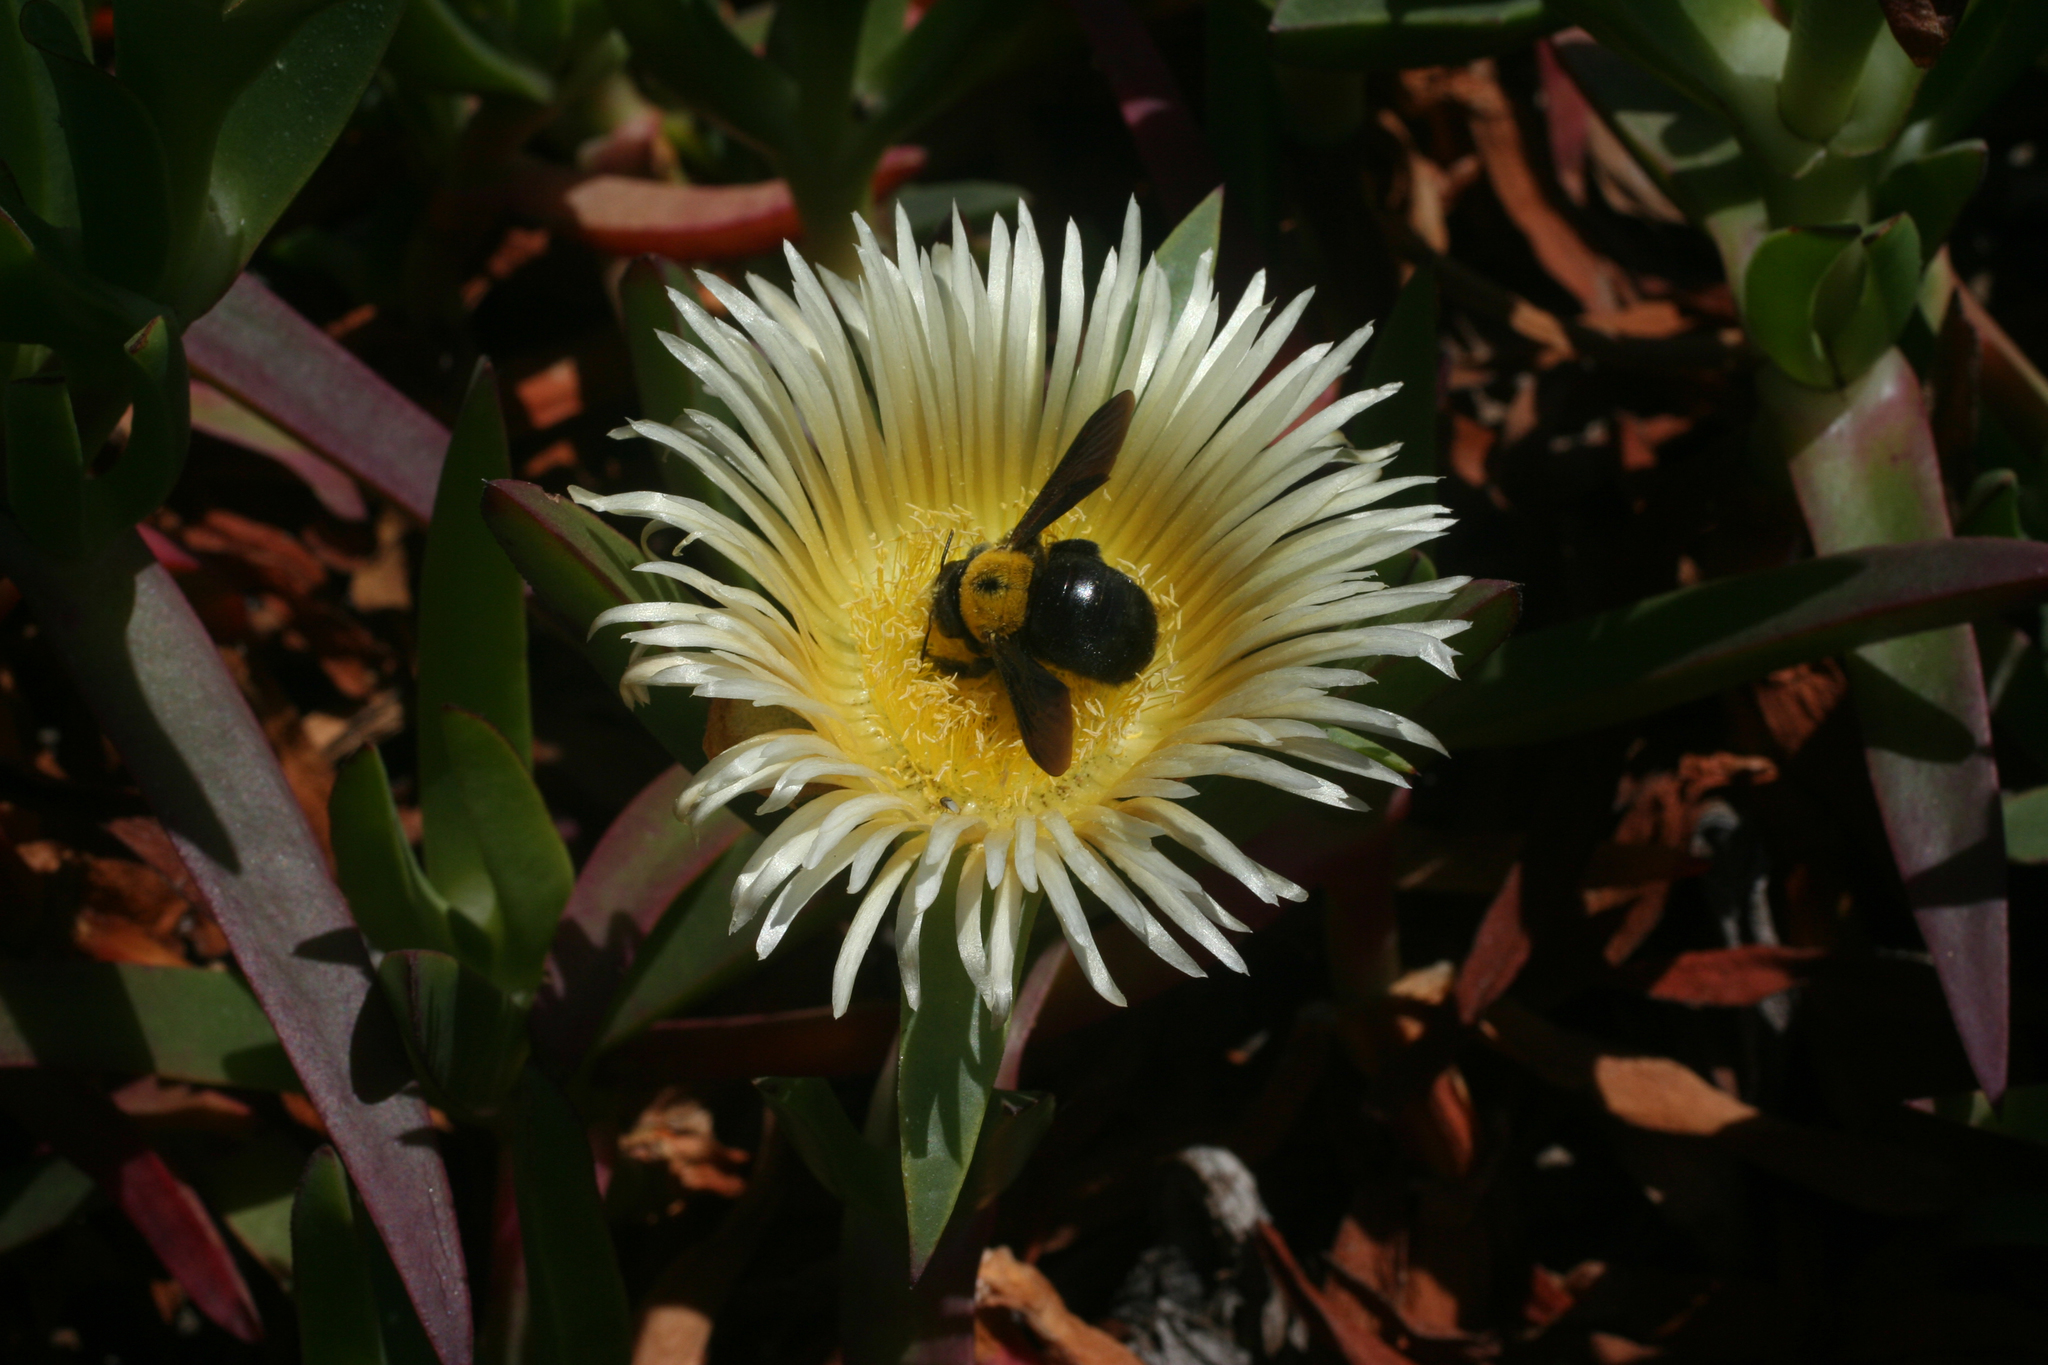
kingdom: Plantae
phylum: Tracheophyta
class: Magnoliopsida
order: Caryophyllales
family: Aizoaceae
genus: Carpobrotus
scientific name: Carpobrotus edulis
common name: Hottentot-fig
